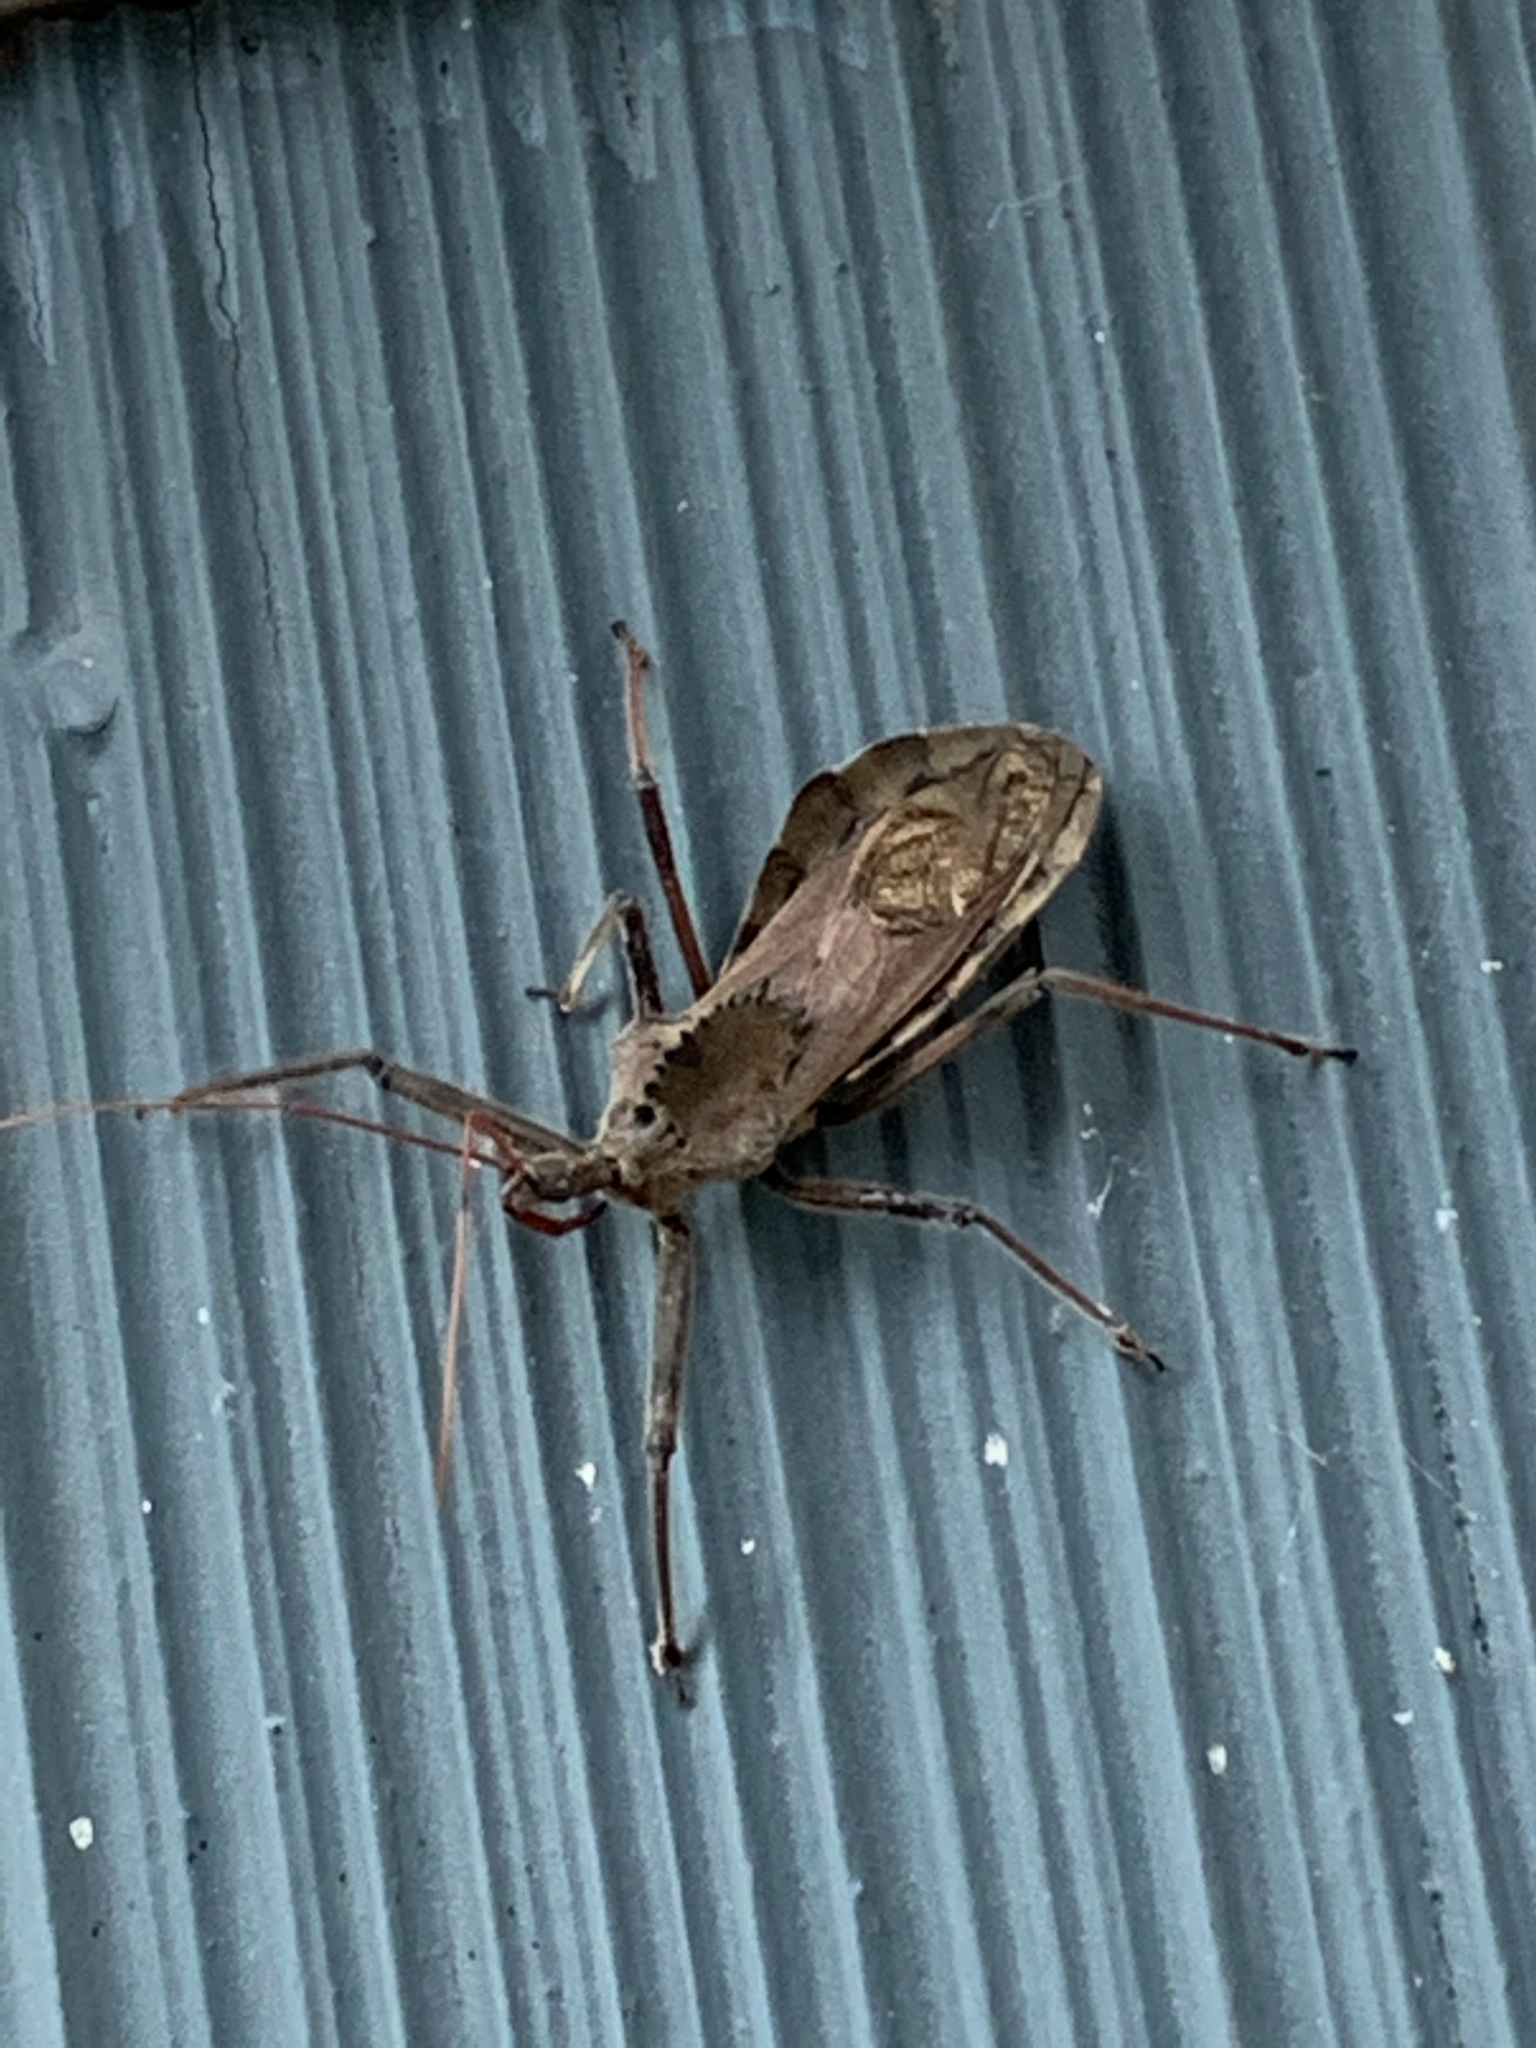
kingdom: Animalia
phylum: Arthropoda
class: Insecta
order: Hemiptera
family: Reduviidae
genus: Arilus
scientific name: Arilus cristatus
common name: North american wheel bug
